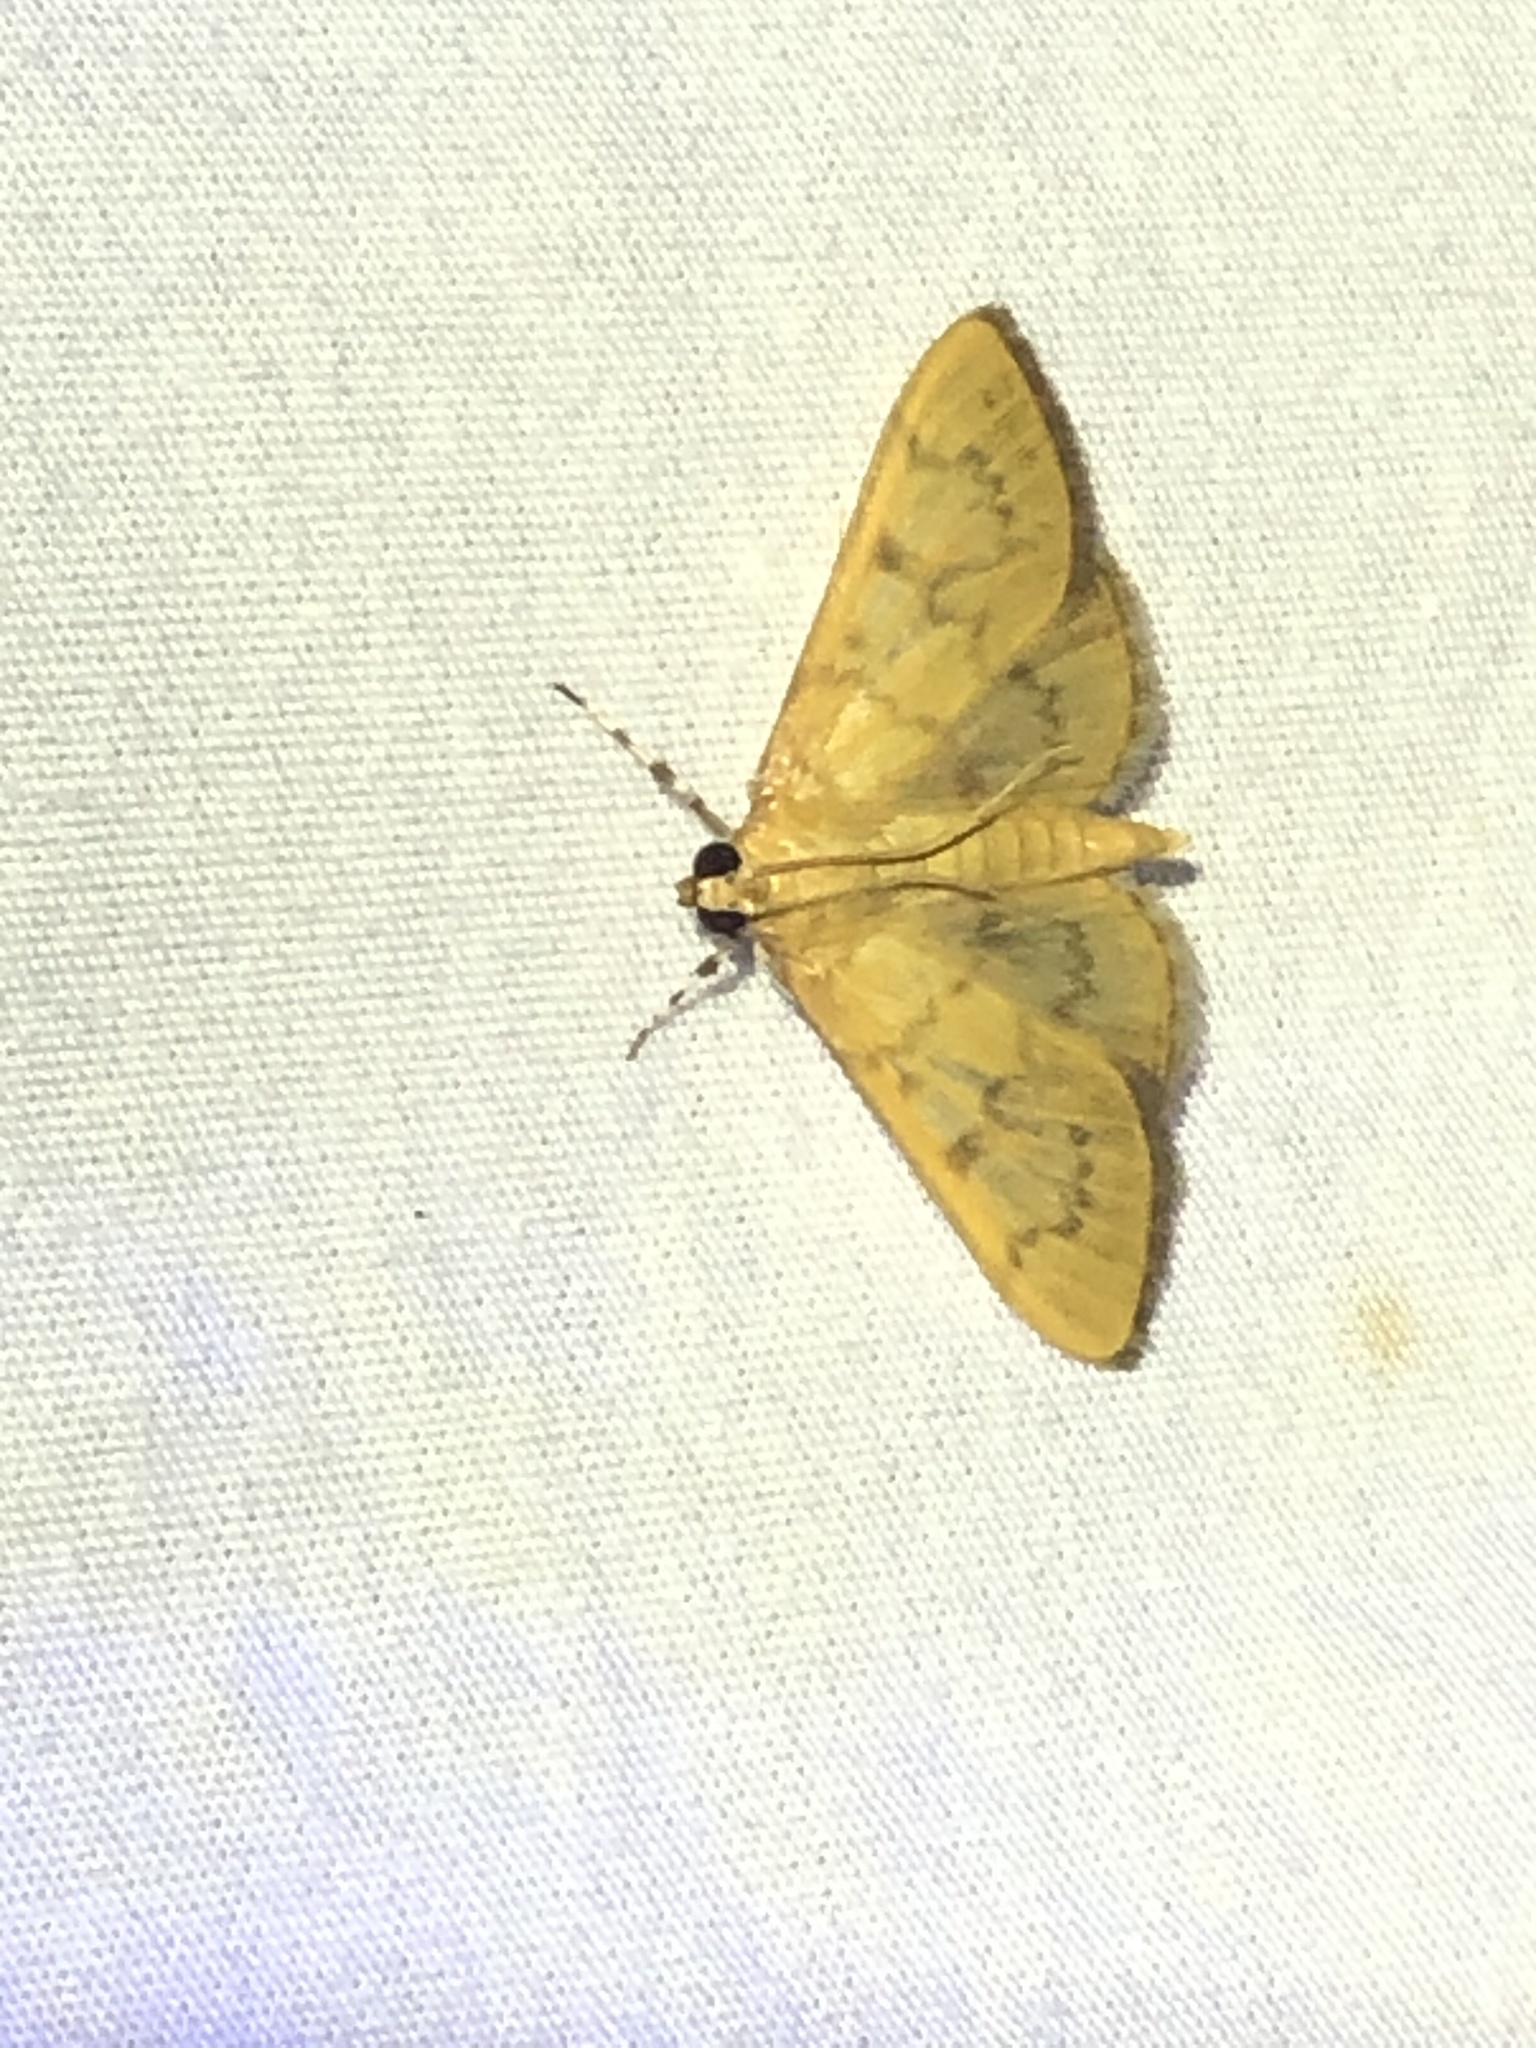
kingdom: Animalia
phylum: Arthropoda
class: Insecta
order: Lepidoptera
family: Crambidae
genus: Pilocrocis
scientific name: Pilocrocis dryalis
